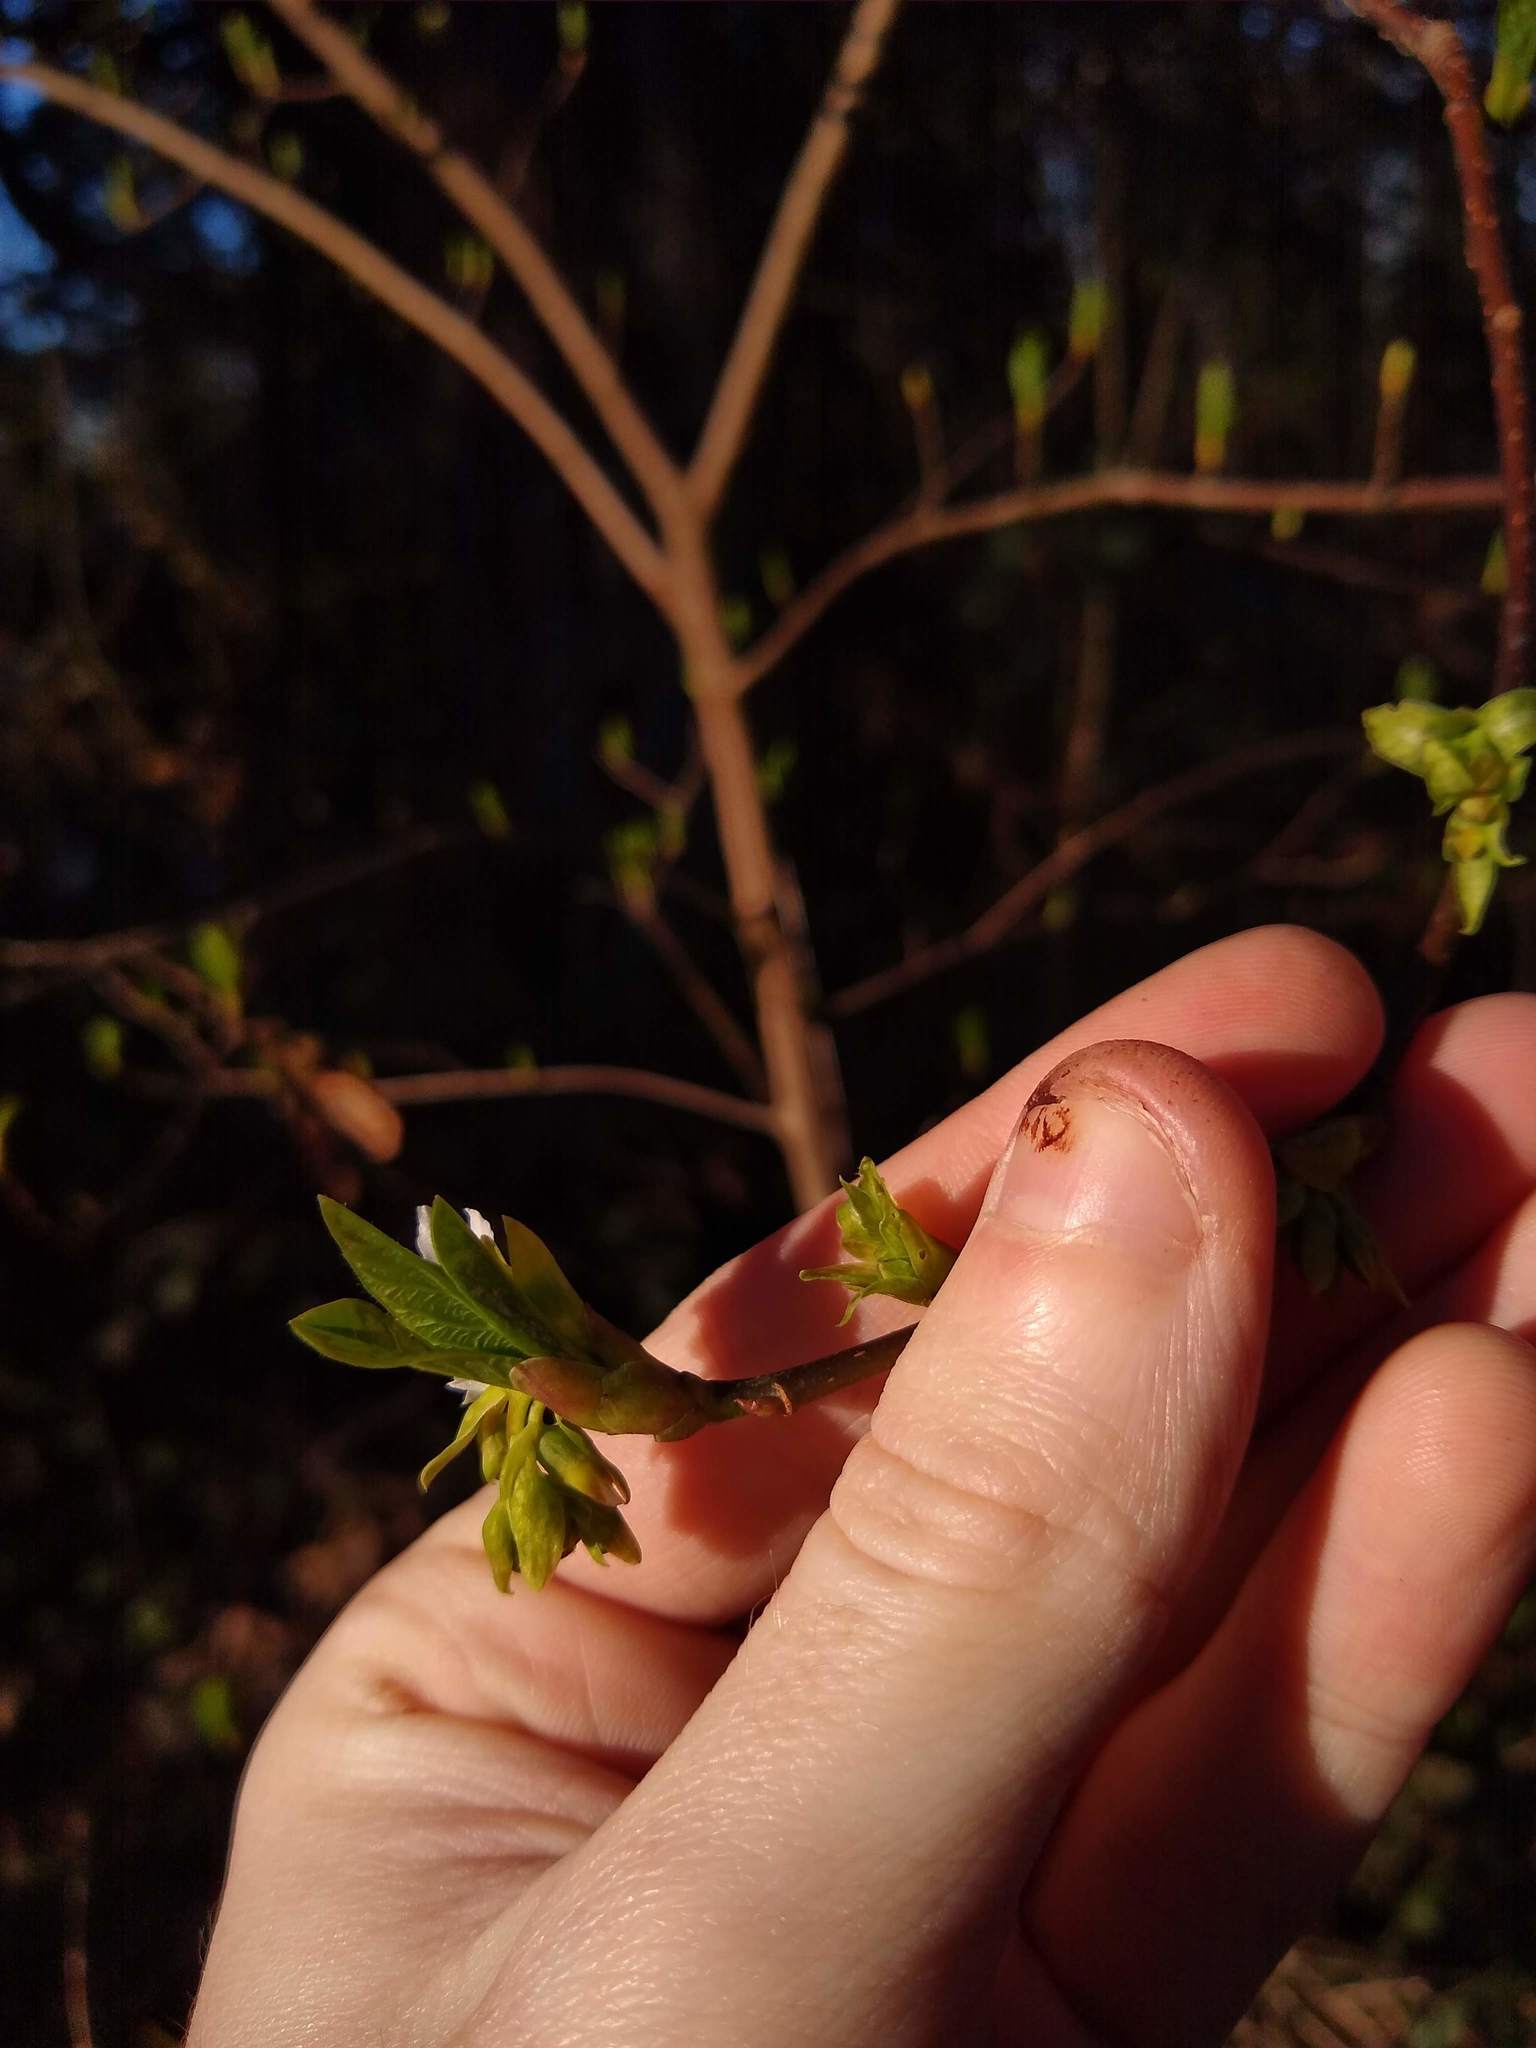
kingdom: Plantae
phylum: Tracheophyta
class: Magnoliopsida
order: Rosales
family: Rosaceae
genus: Oemleria
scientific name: Oemleria cerasiformis
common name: Osoberry
